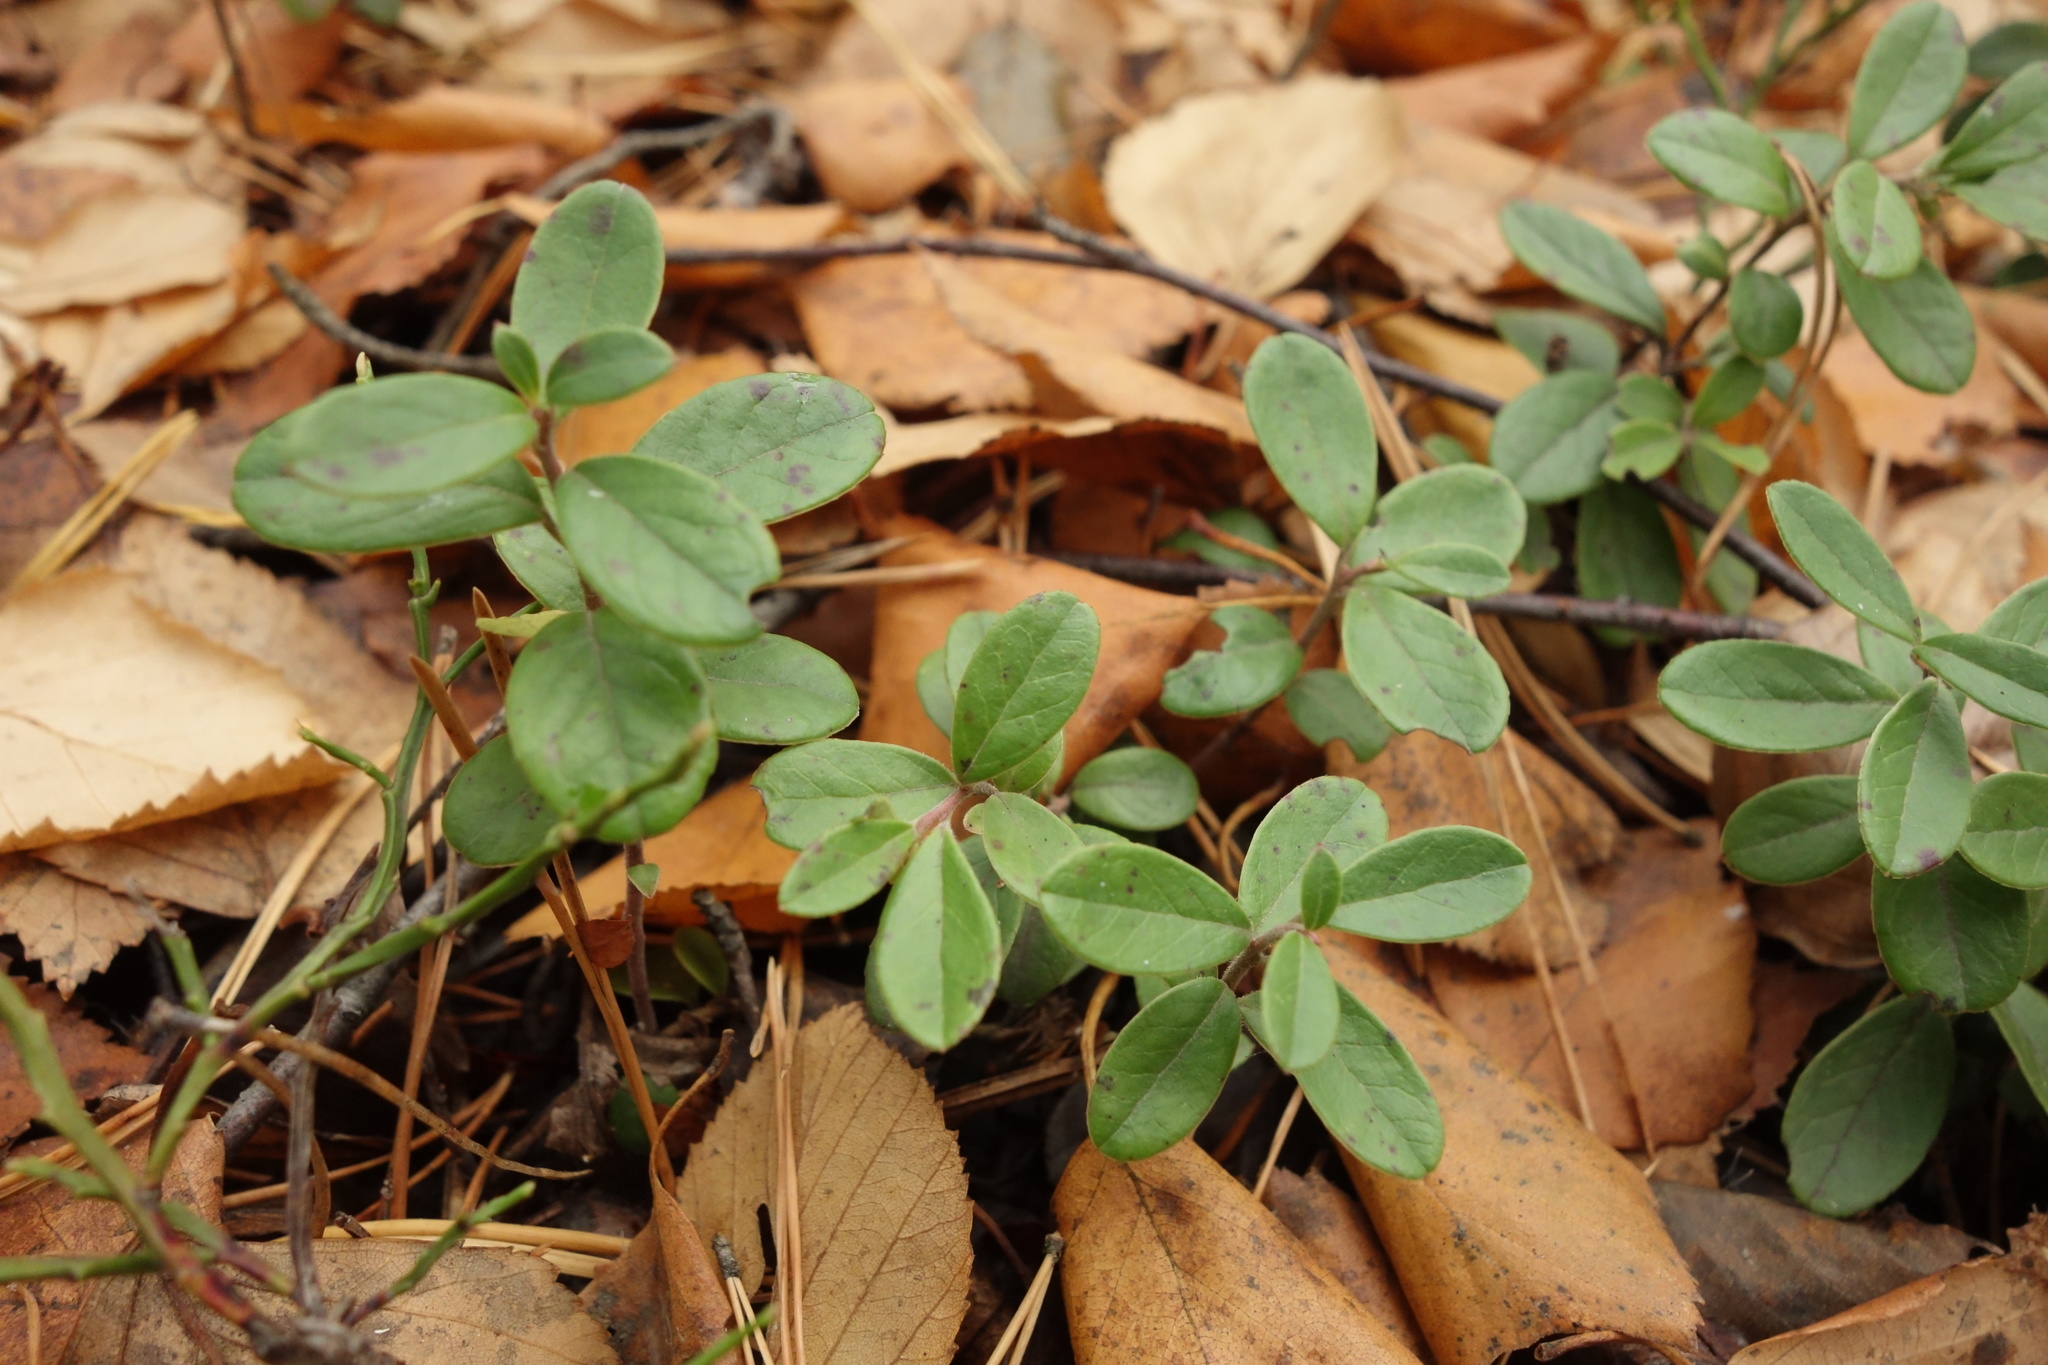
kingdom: Plantae
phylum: Tracheophyta
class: Magnoliopsida
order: Ericales
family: Ericaceae
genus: Vaccinium
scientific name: Vaccinium vitis-idaea
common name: Cowberry
